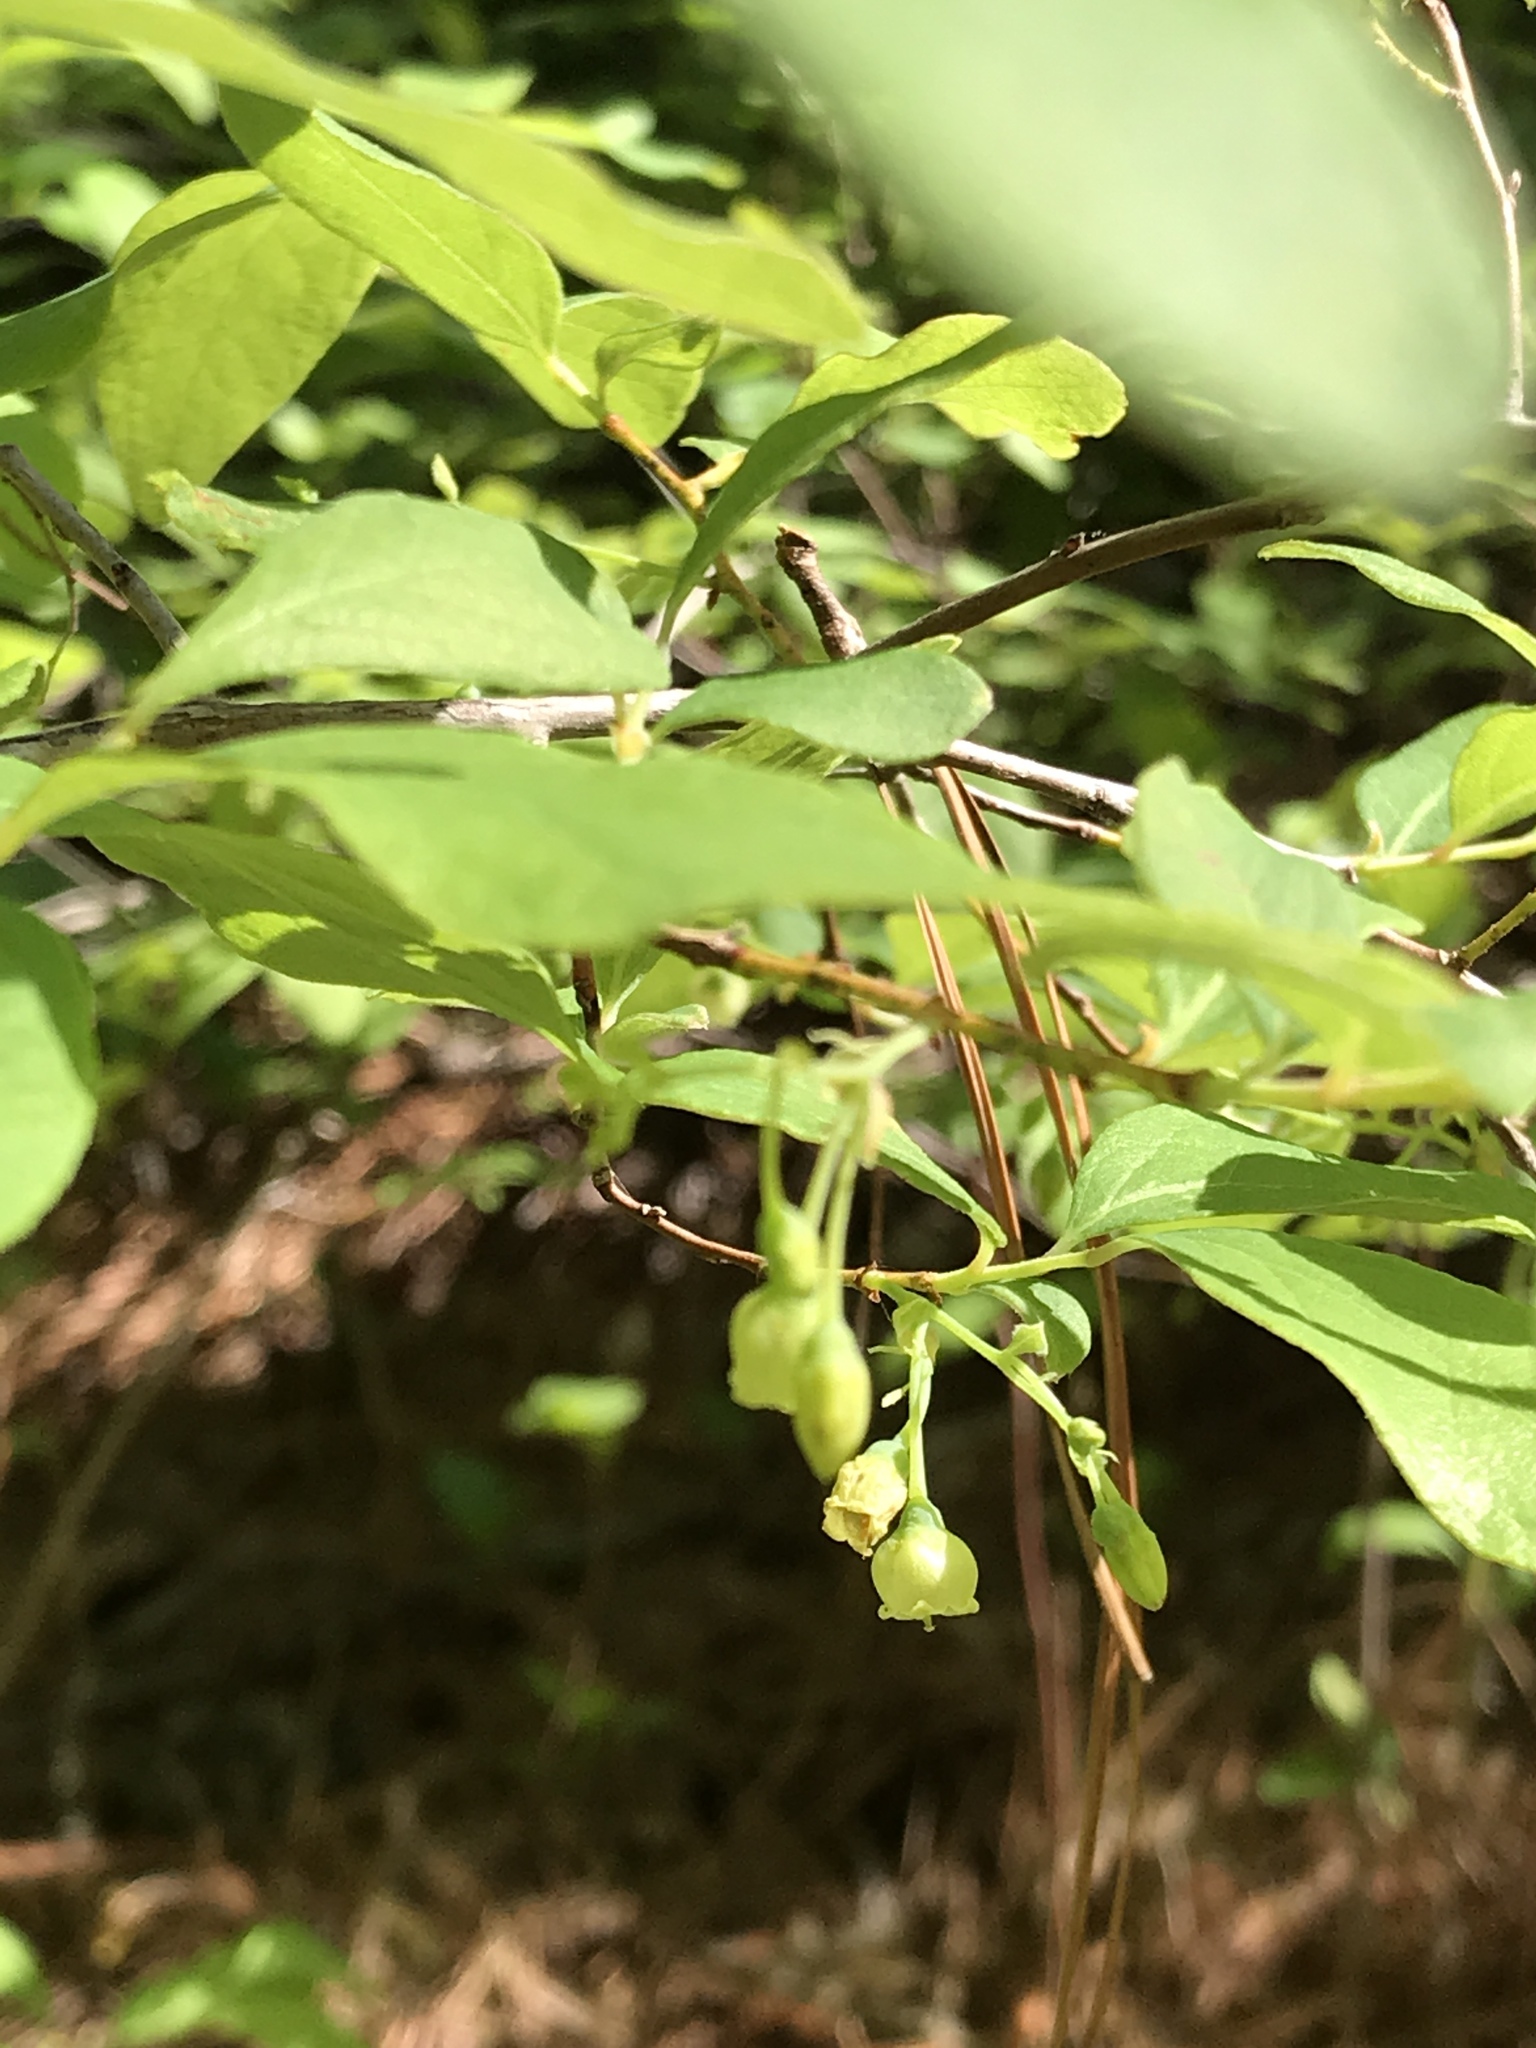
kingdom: Plantae
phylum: Tracheophyta
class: Magnoliopsida
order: Ericales
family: Ericaceae
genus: Gaylussacia
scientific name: Gaylussacia frondosa
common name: Dangleberry
